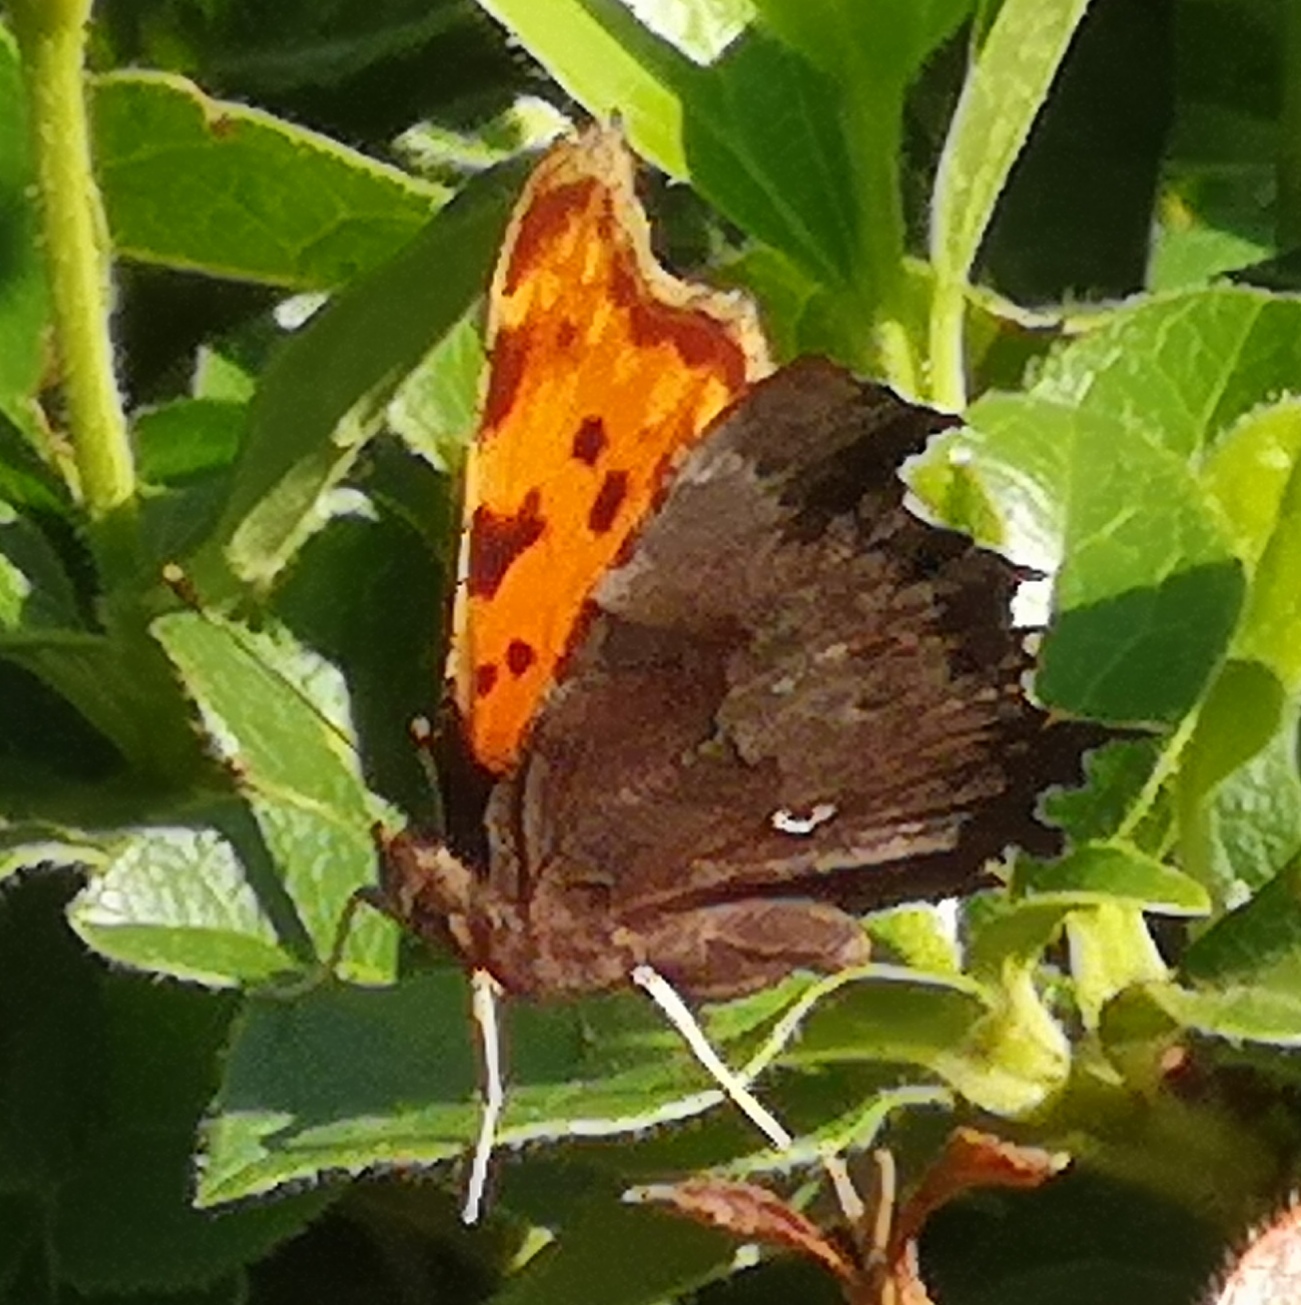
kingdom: Animalia
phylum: Arthropoda
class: Insecta
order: Lepidoptera
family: Nymphalidae
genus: Polygonia
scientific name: Polygonia c-album
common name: Comma
